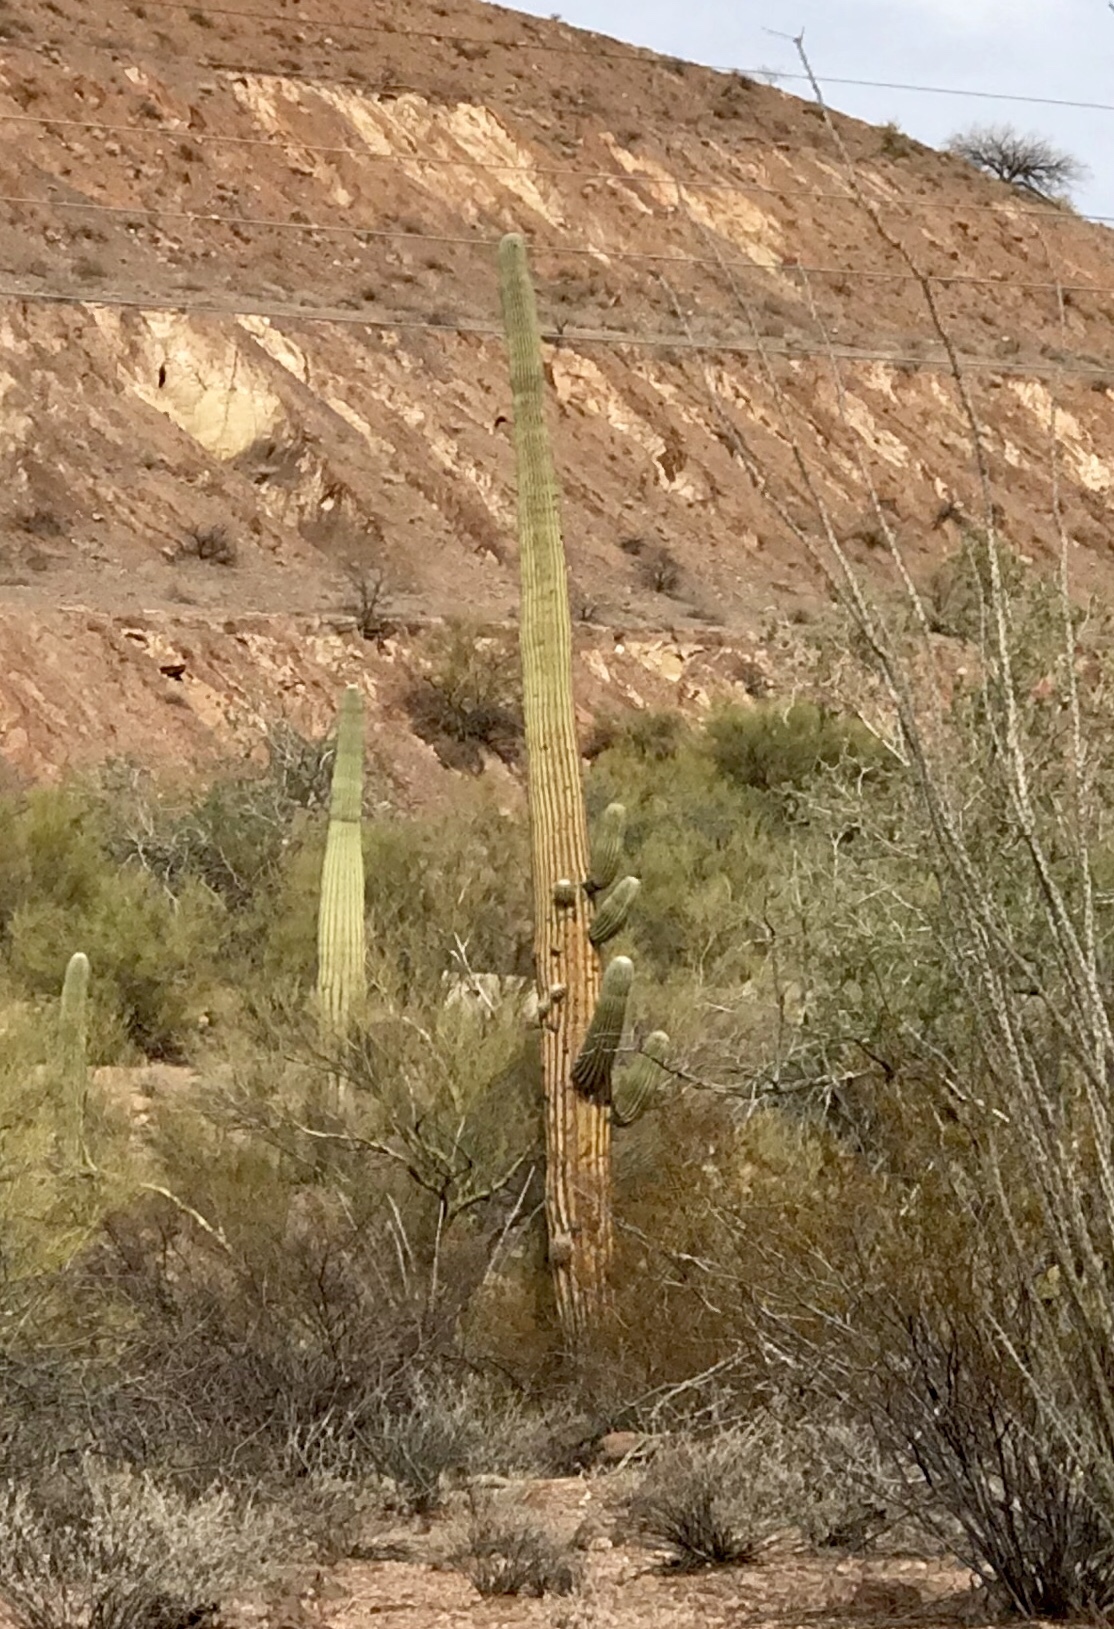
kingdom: Plantae
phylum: Tracheophyta
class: Magnoliopsida
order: Caryophyllales
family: Cactaceae
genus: Carnegiea
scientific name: Carnegiea gigantea
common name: Saguaro
